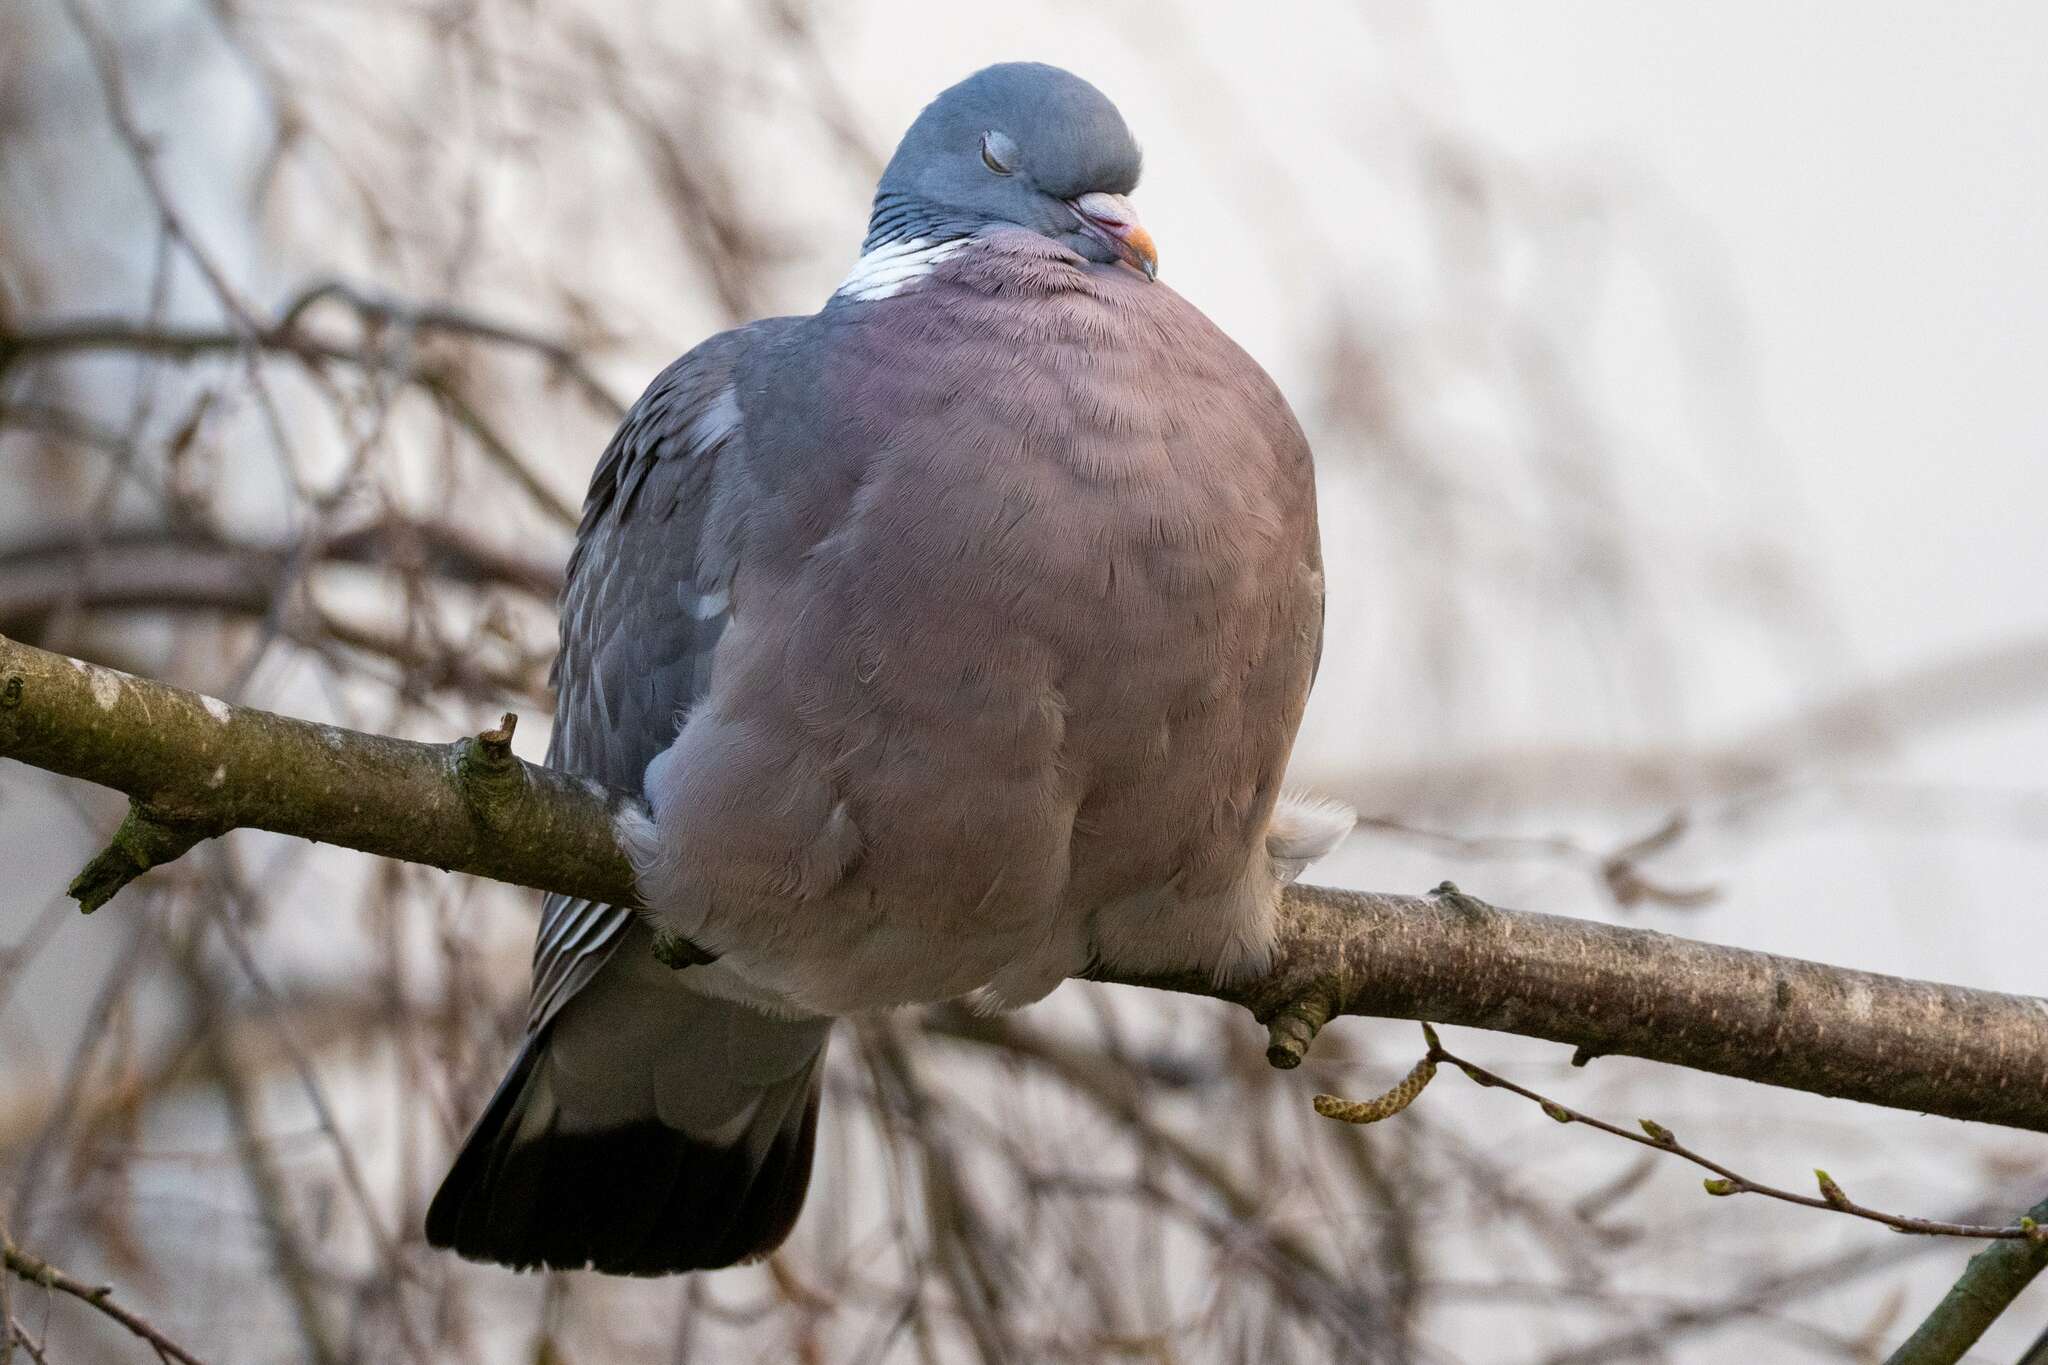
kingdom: Animalia
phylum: Chordata
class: Aves
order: Columbiformes
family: Columbidae
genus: Columba
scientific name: Columba palumbus
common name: Common wood pigeon
